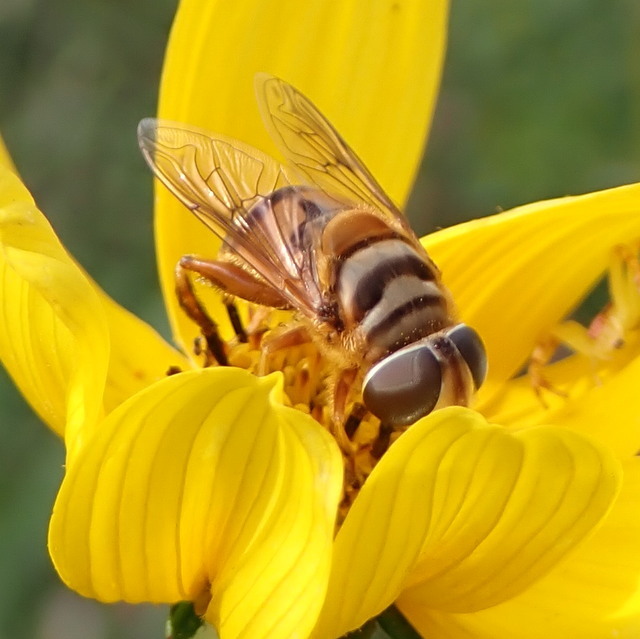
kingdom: Animalia
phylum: Arthropoda
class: Insecta
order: Diptera
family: Syrphidae
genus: Palpada
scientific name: Palpada vinetorum
